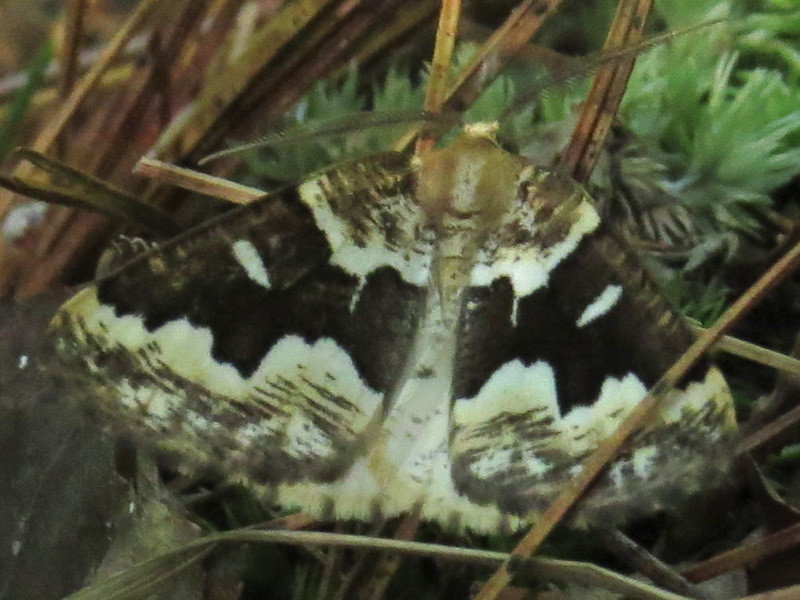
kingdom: Animalia
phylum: Arthropoda
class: Insecta
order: Lepidoptera
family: Geometridae
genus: Caripeta
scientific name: Caripeta divisata
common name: Gray spruce looper
